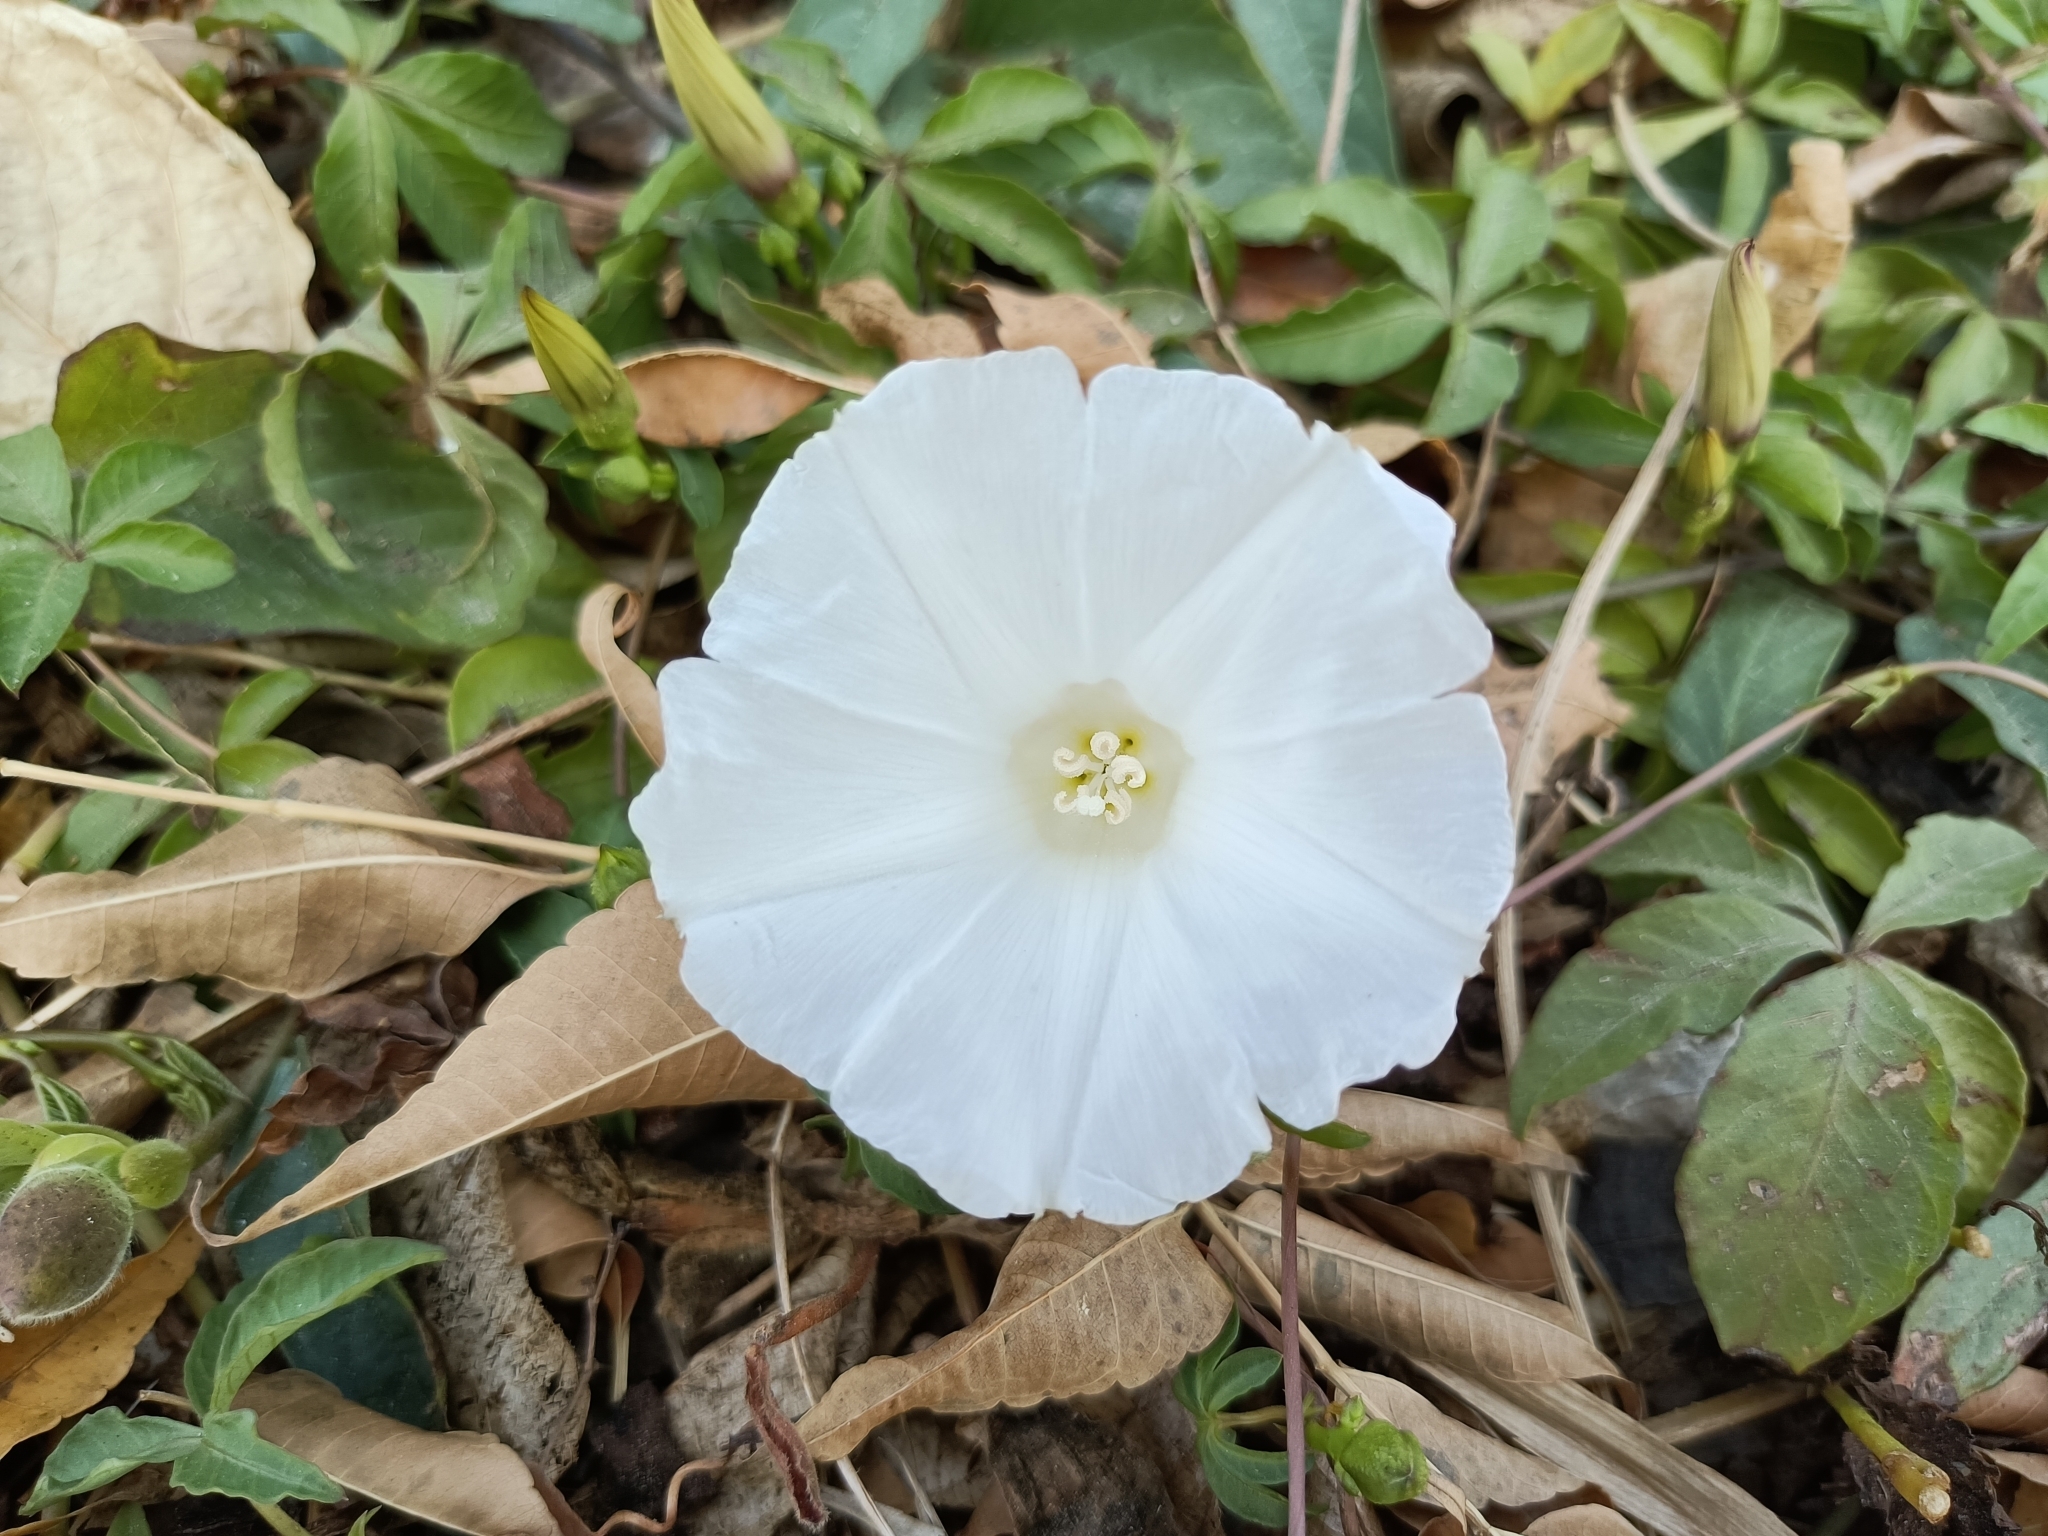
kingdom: Plantae
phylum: Tracheophyta
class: Magnoliopsida
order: Solanales
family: Convolvulaceae
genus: Operculina
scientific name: Operculina turpethum
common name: Transparent wood-rose
